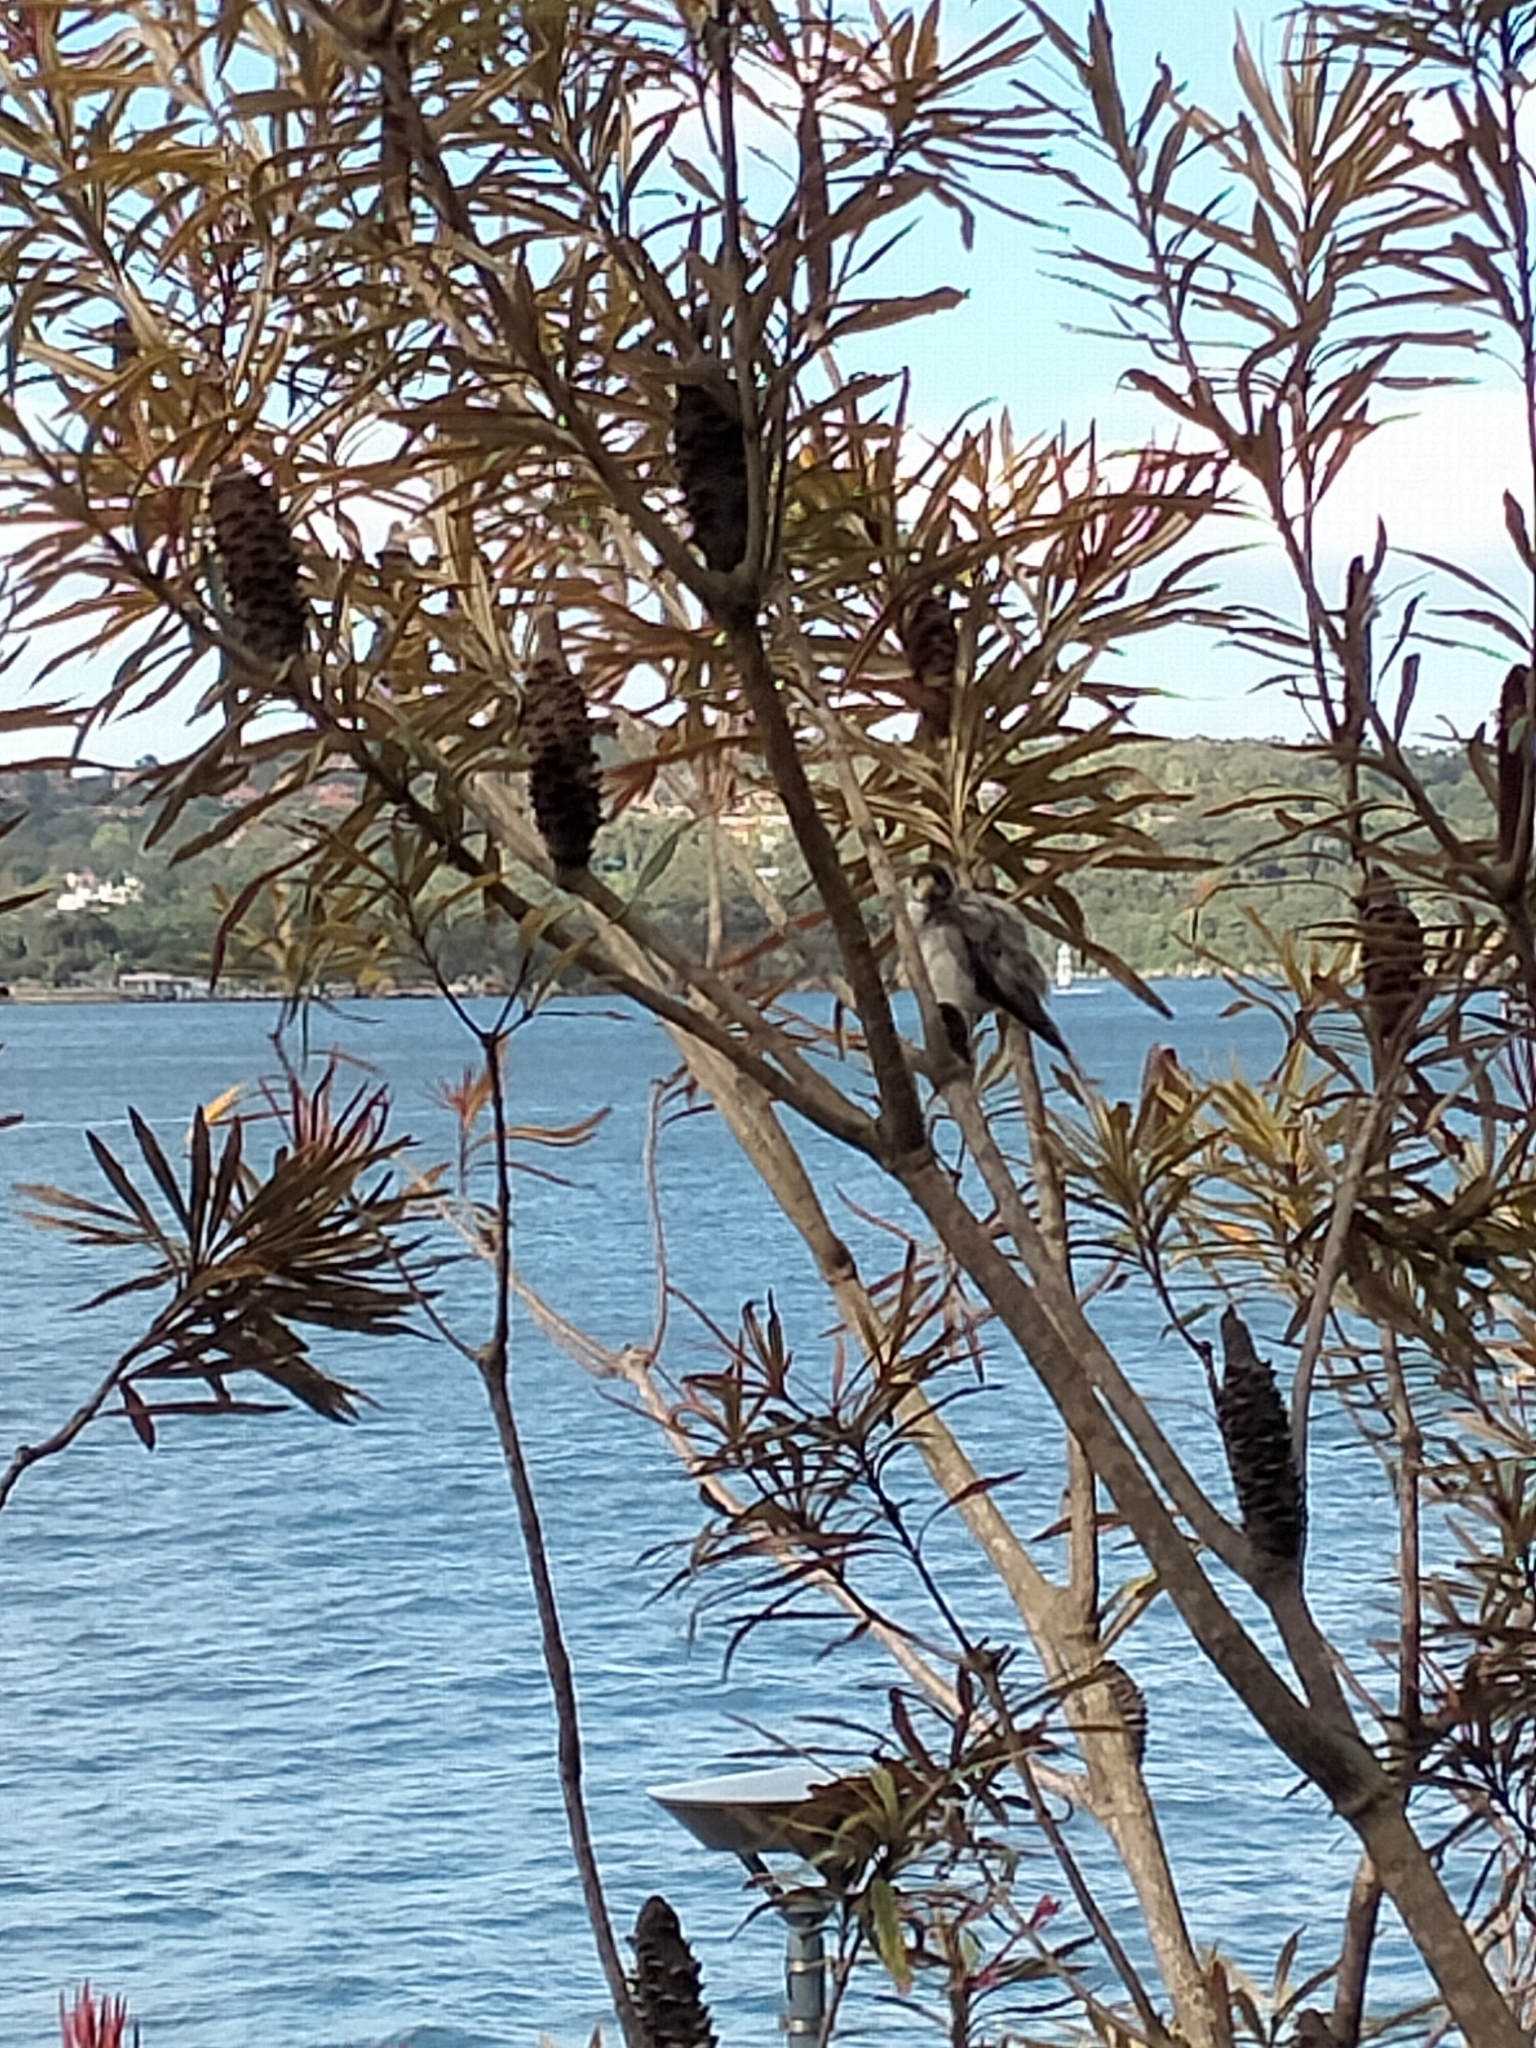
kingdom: Animalia
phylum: Chordata
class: Aves
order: Passeriformes
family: Meliphagidae
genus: Manorina
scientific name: Manorina melanocephala
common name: Noisy miner
